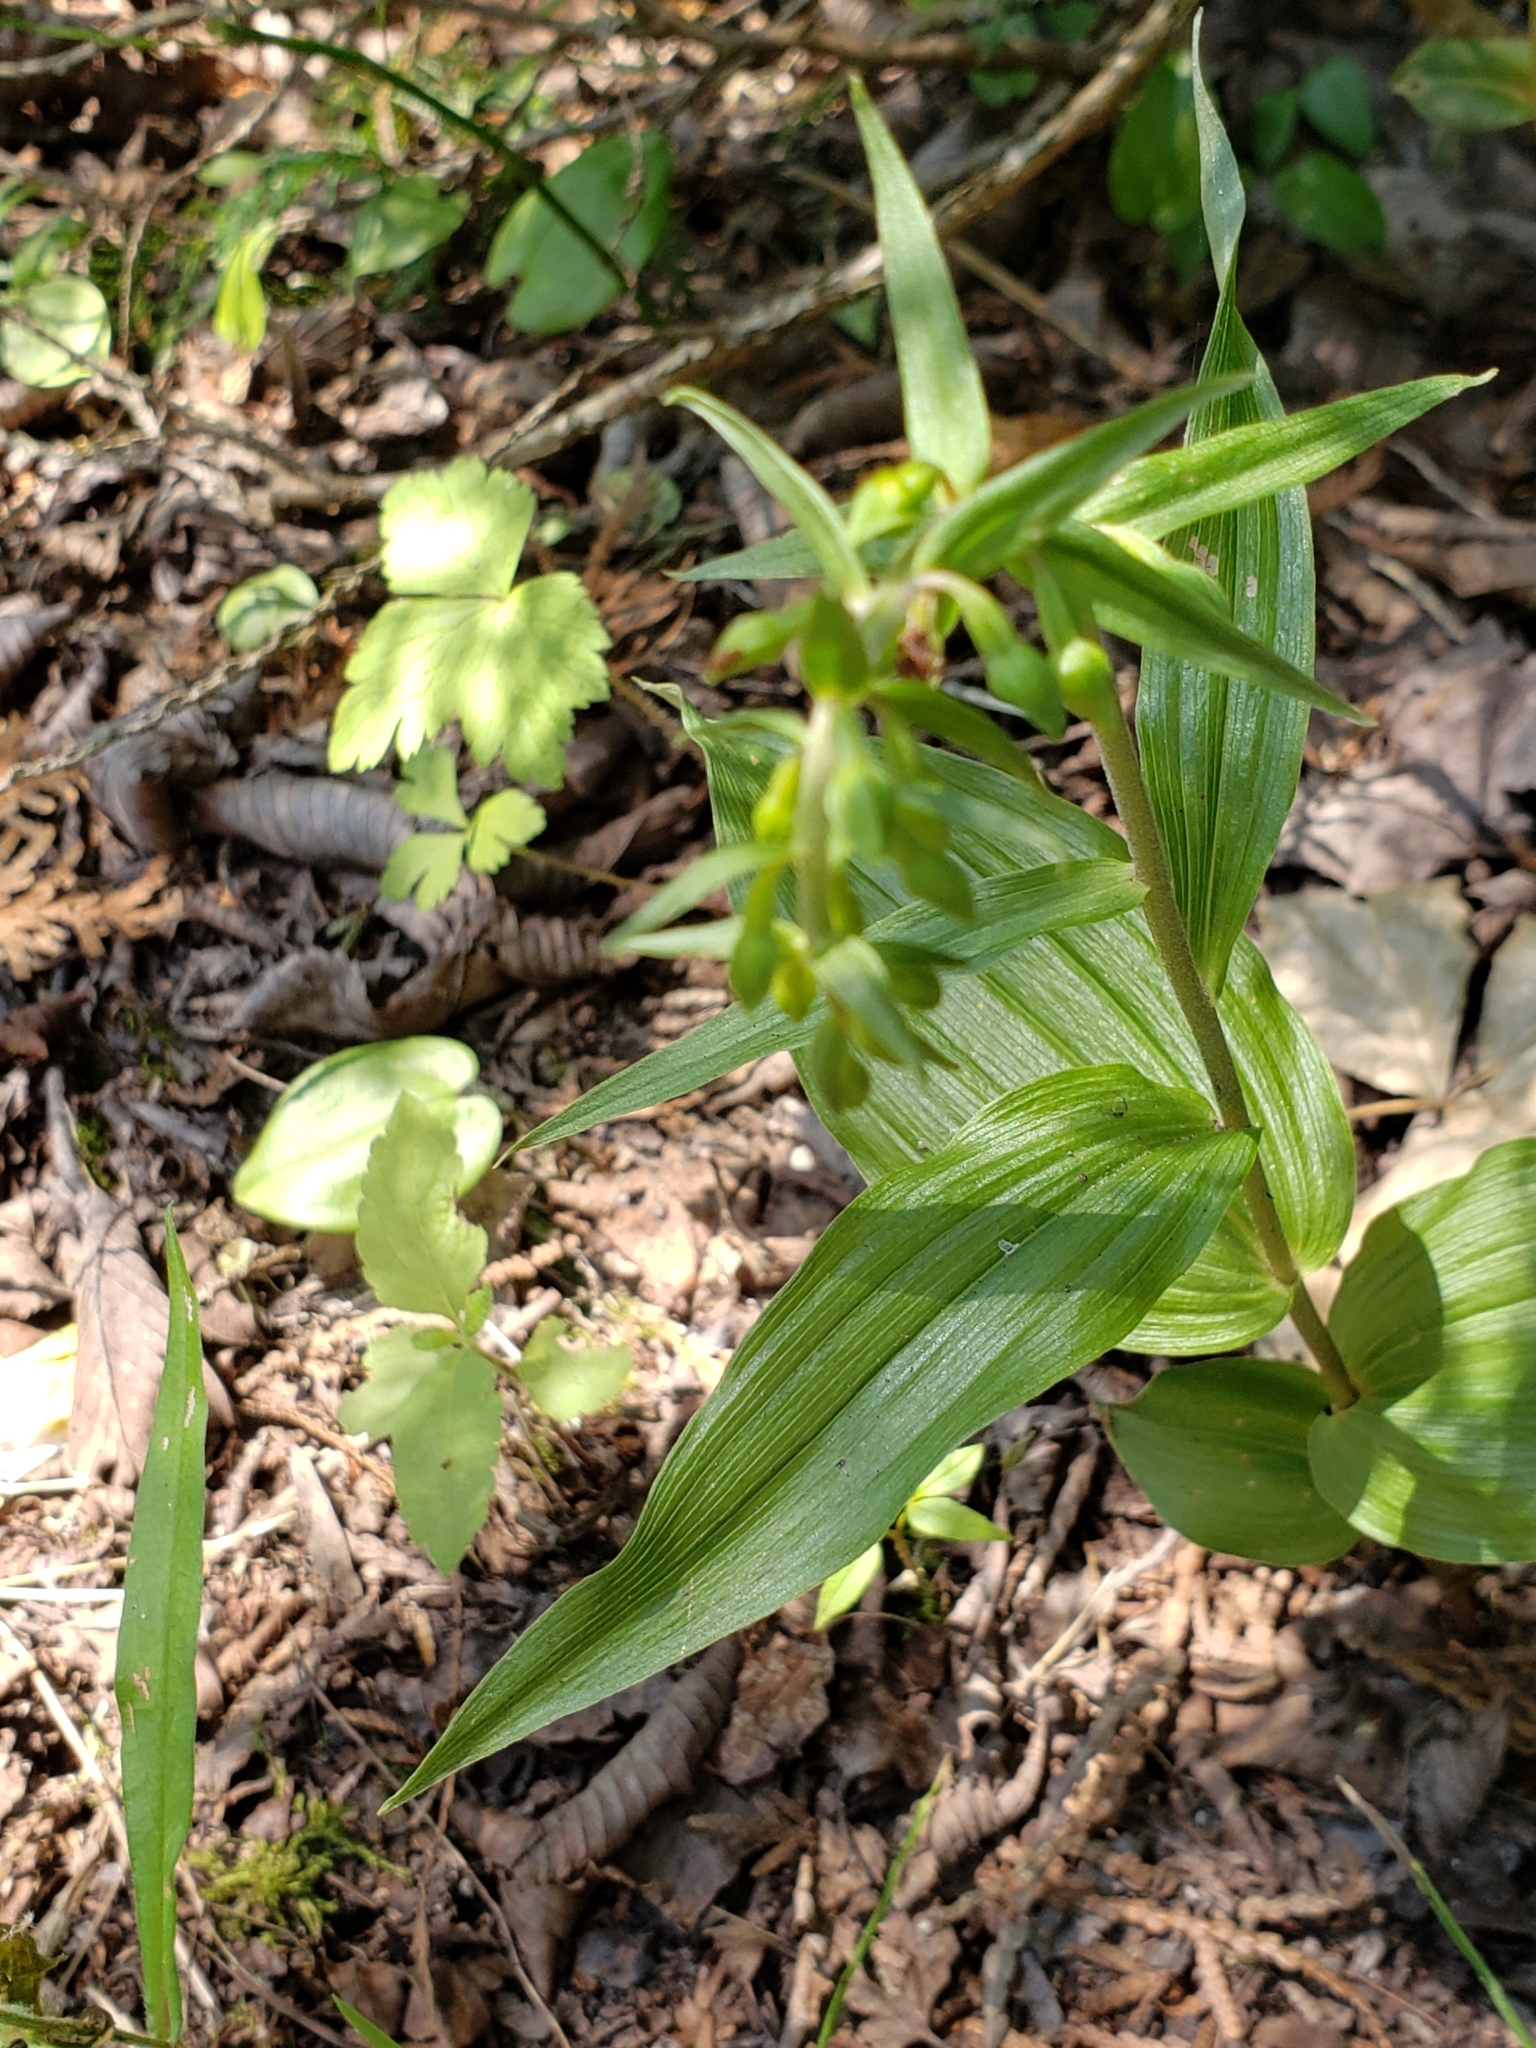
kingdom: Plantae
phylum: Tracheophyta
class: Liliopsida
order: Asparagales
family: Orchidaceae
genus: Epipactis
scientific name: Epipactis helleborine
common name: Broad-leaved helleborine
